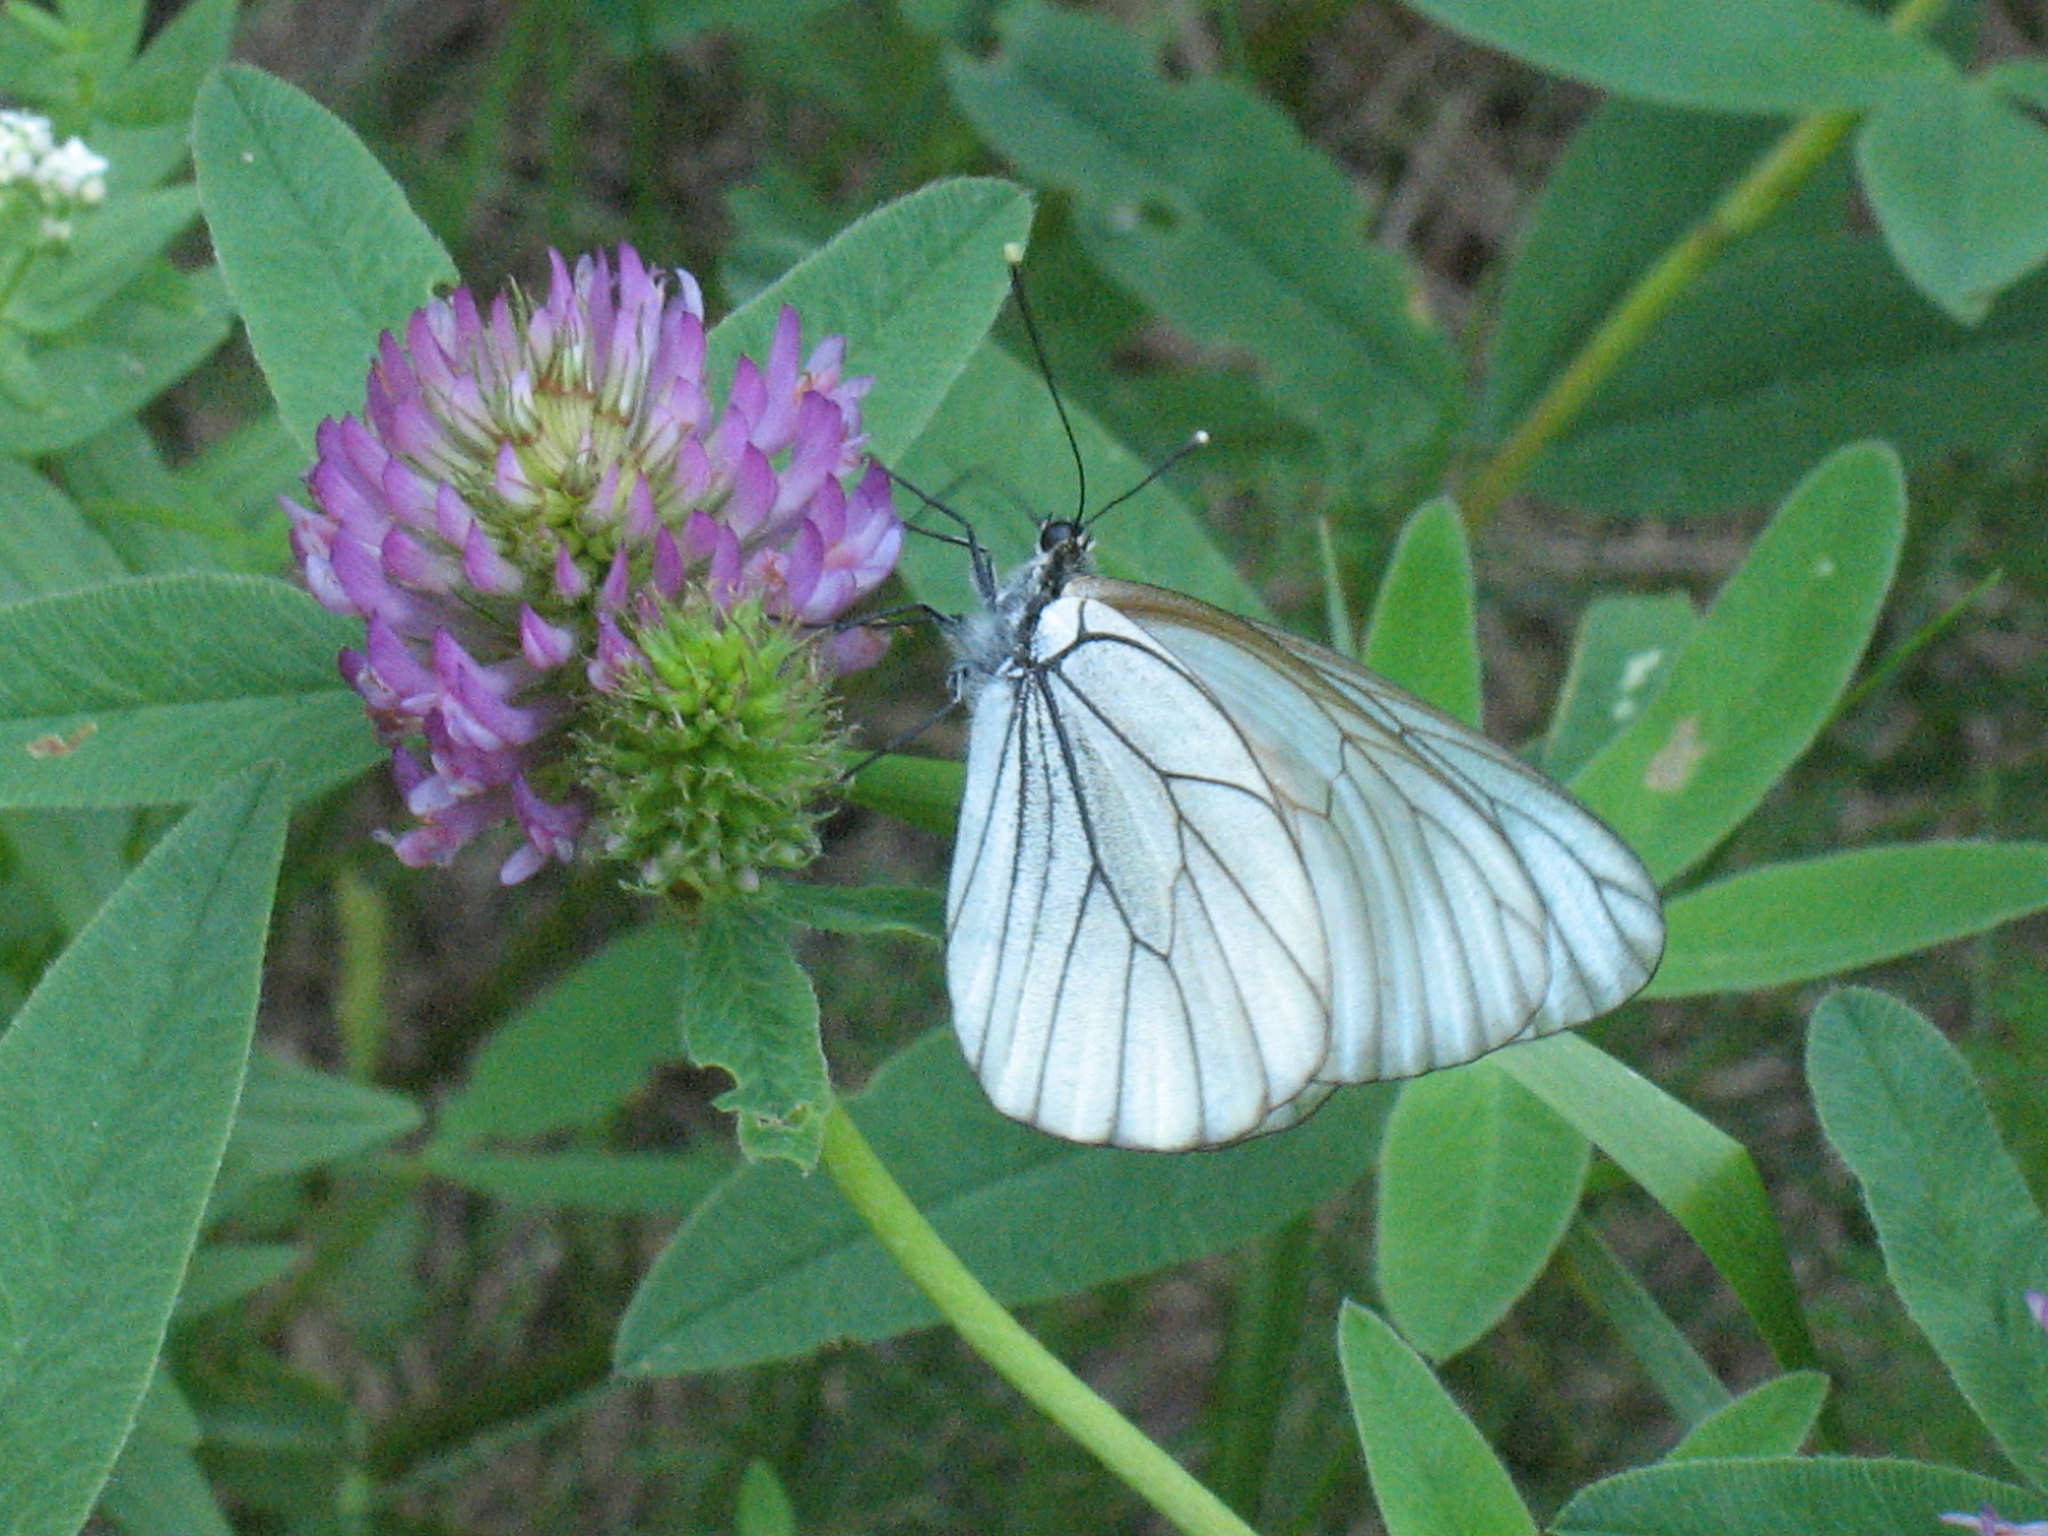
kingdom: Animalia
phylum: Arthropoda
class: Insecta
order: Lepidoptera
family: Pieridae
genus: Aporia
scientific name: Aporia crataegi
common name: Black-veined white
